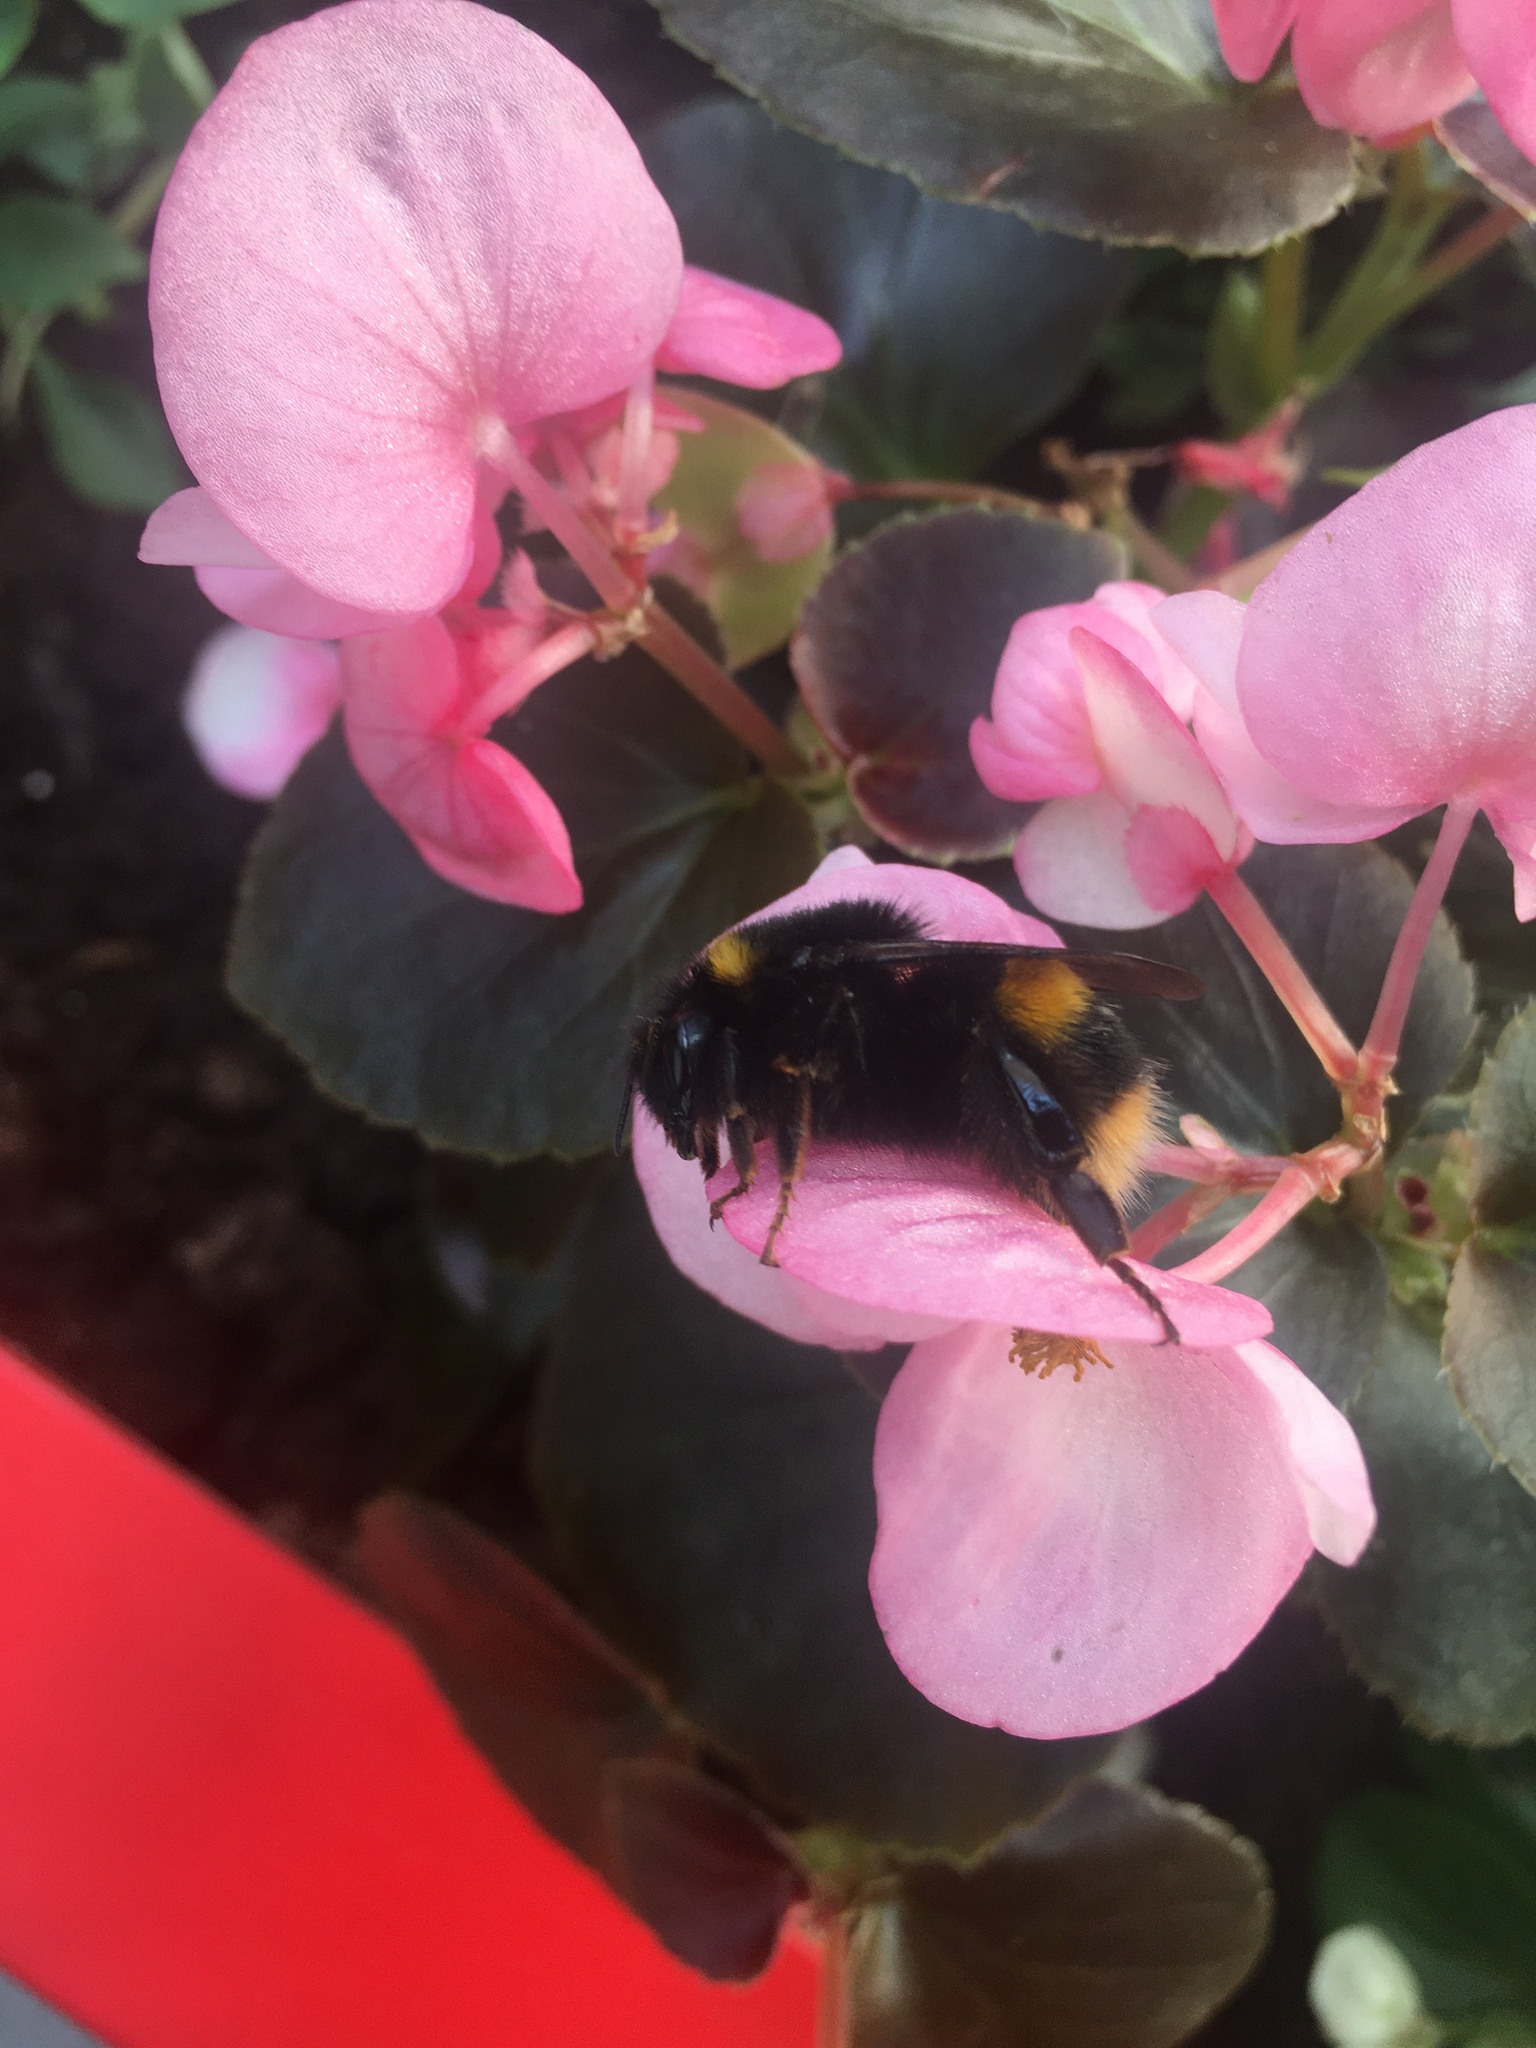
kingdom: Animalia
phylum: Arthropoda
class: Insecta
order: Hymenoptera
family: Apidae
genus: Bombus
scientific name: Bombus terrestris
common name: Buff-tailed bumblebee
